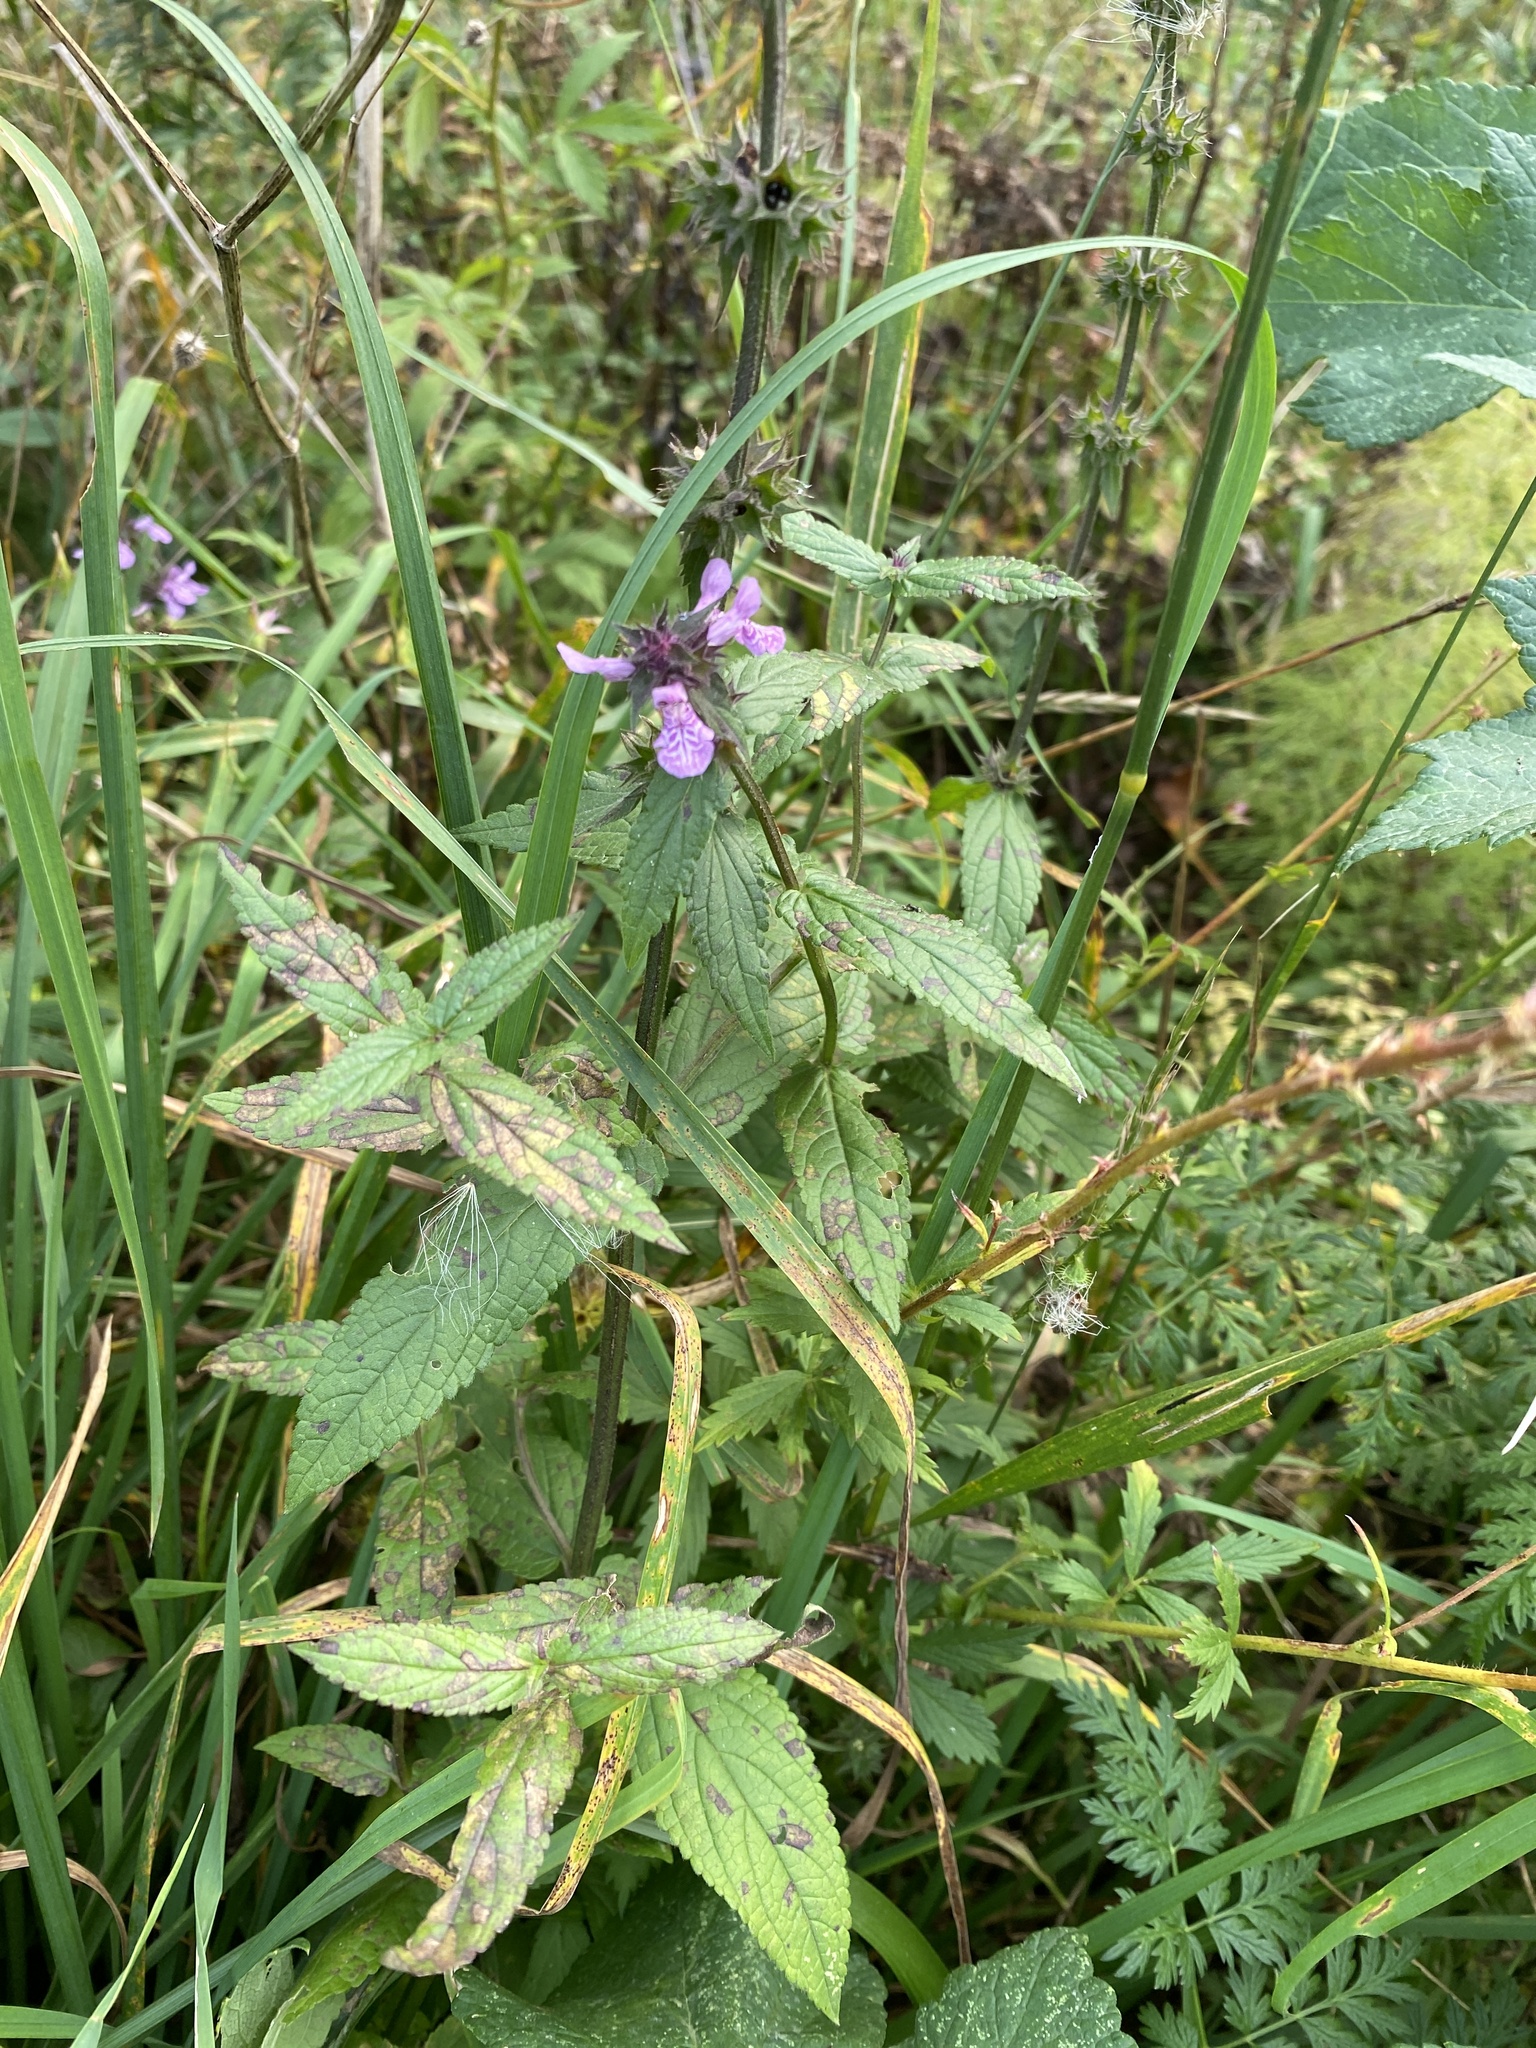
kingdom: Plantae
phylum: Tracheophyta
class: Magnoliopsida
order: Lamiales
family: Lamiaceae
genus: Stachys
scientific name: Stachys palustris
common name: Marsh woundwort
